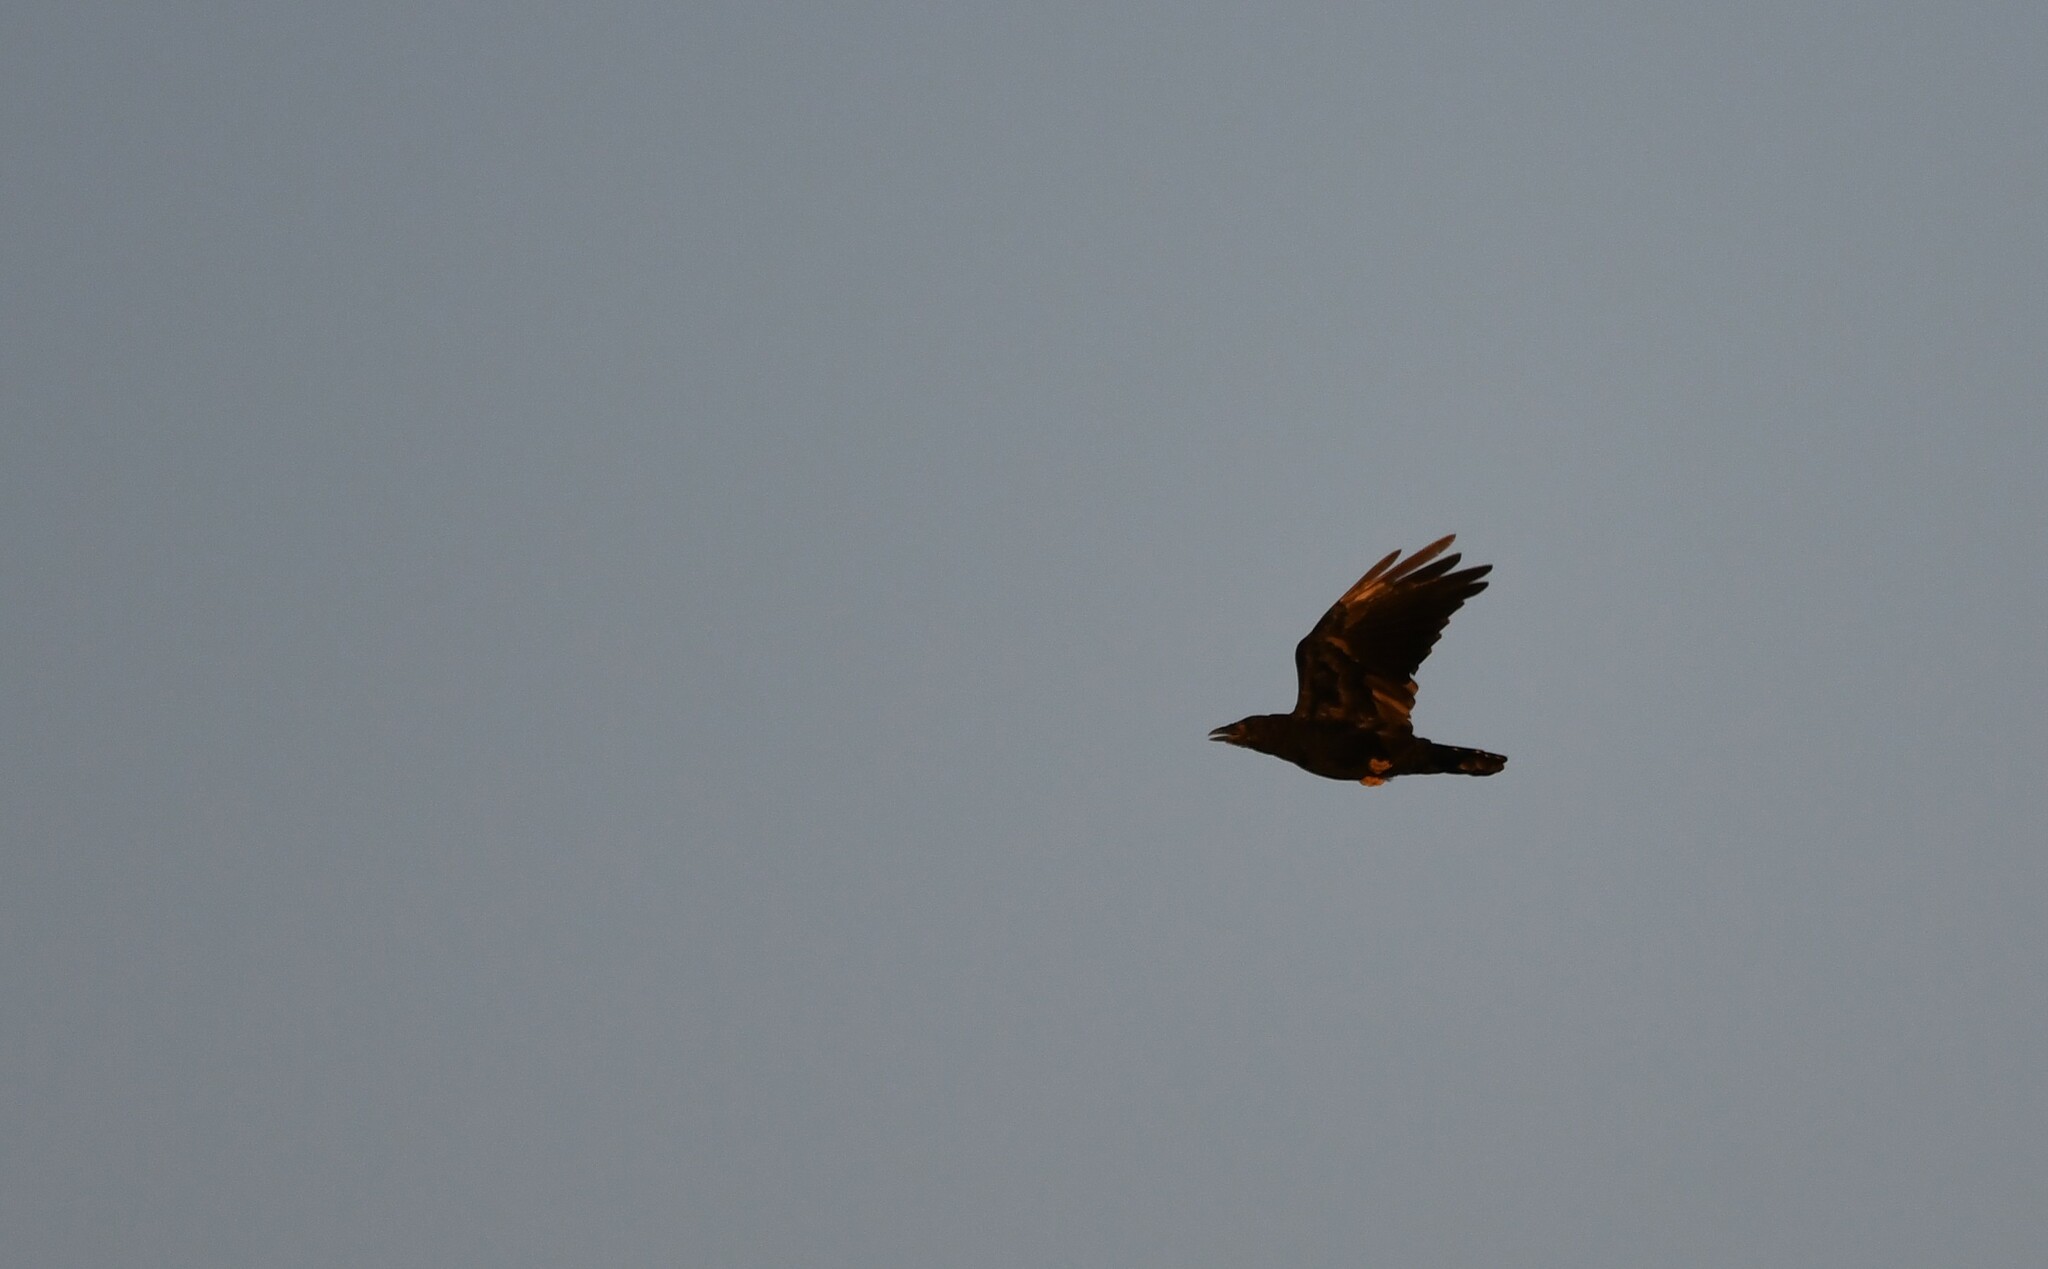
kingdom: Animalia
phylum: Chordata
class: Aves
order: Passeriformes
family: Corvidae
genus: Corvus
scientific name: Corvus corone
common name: Carrion crow
